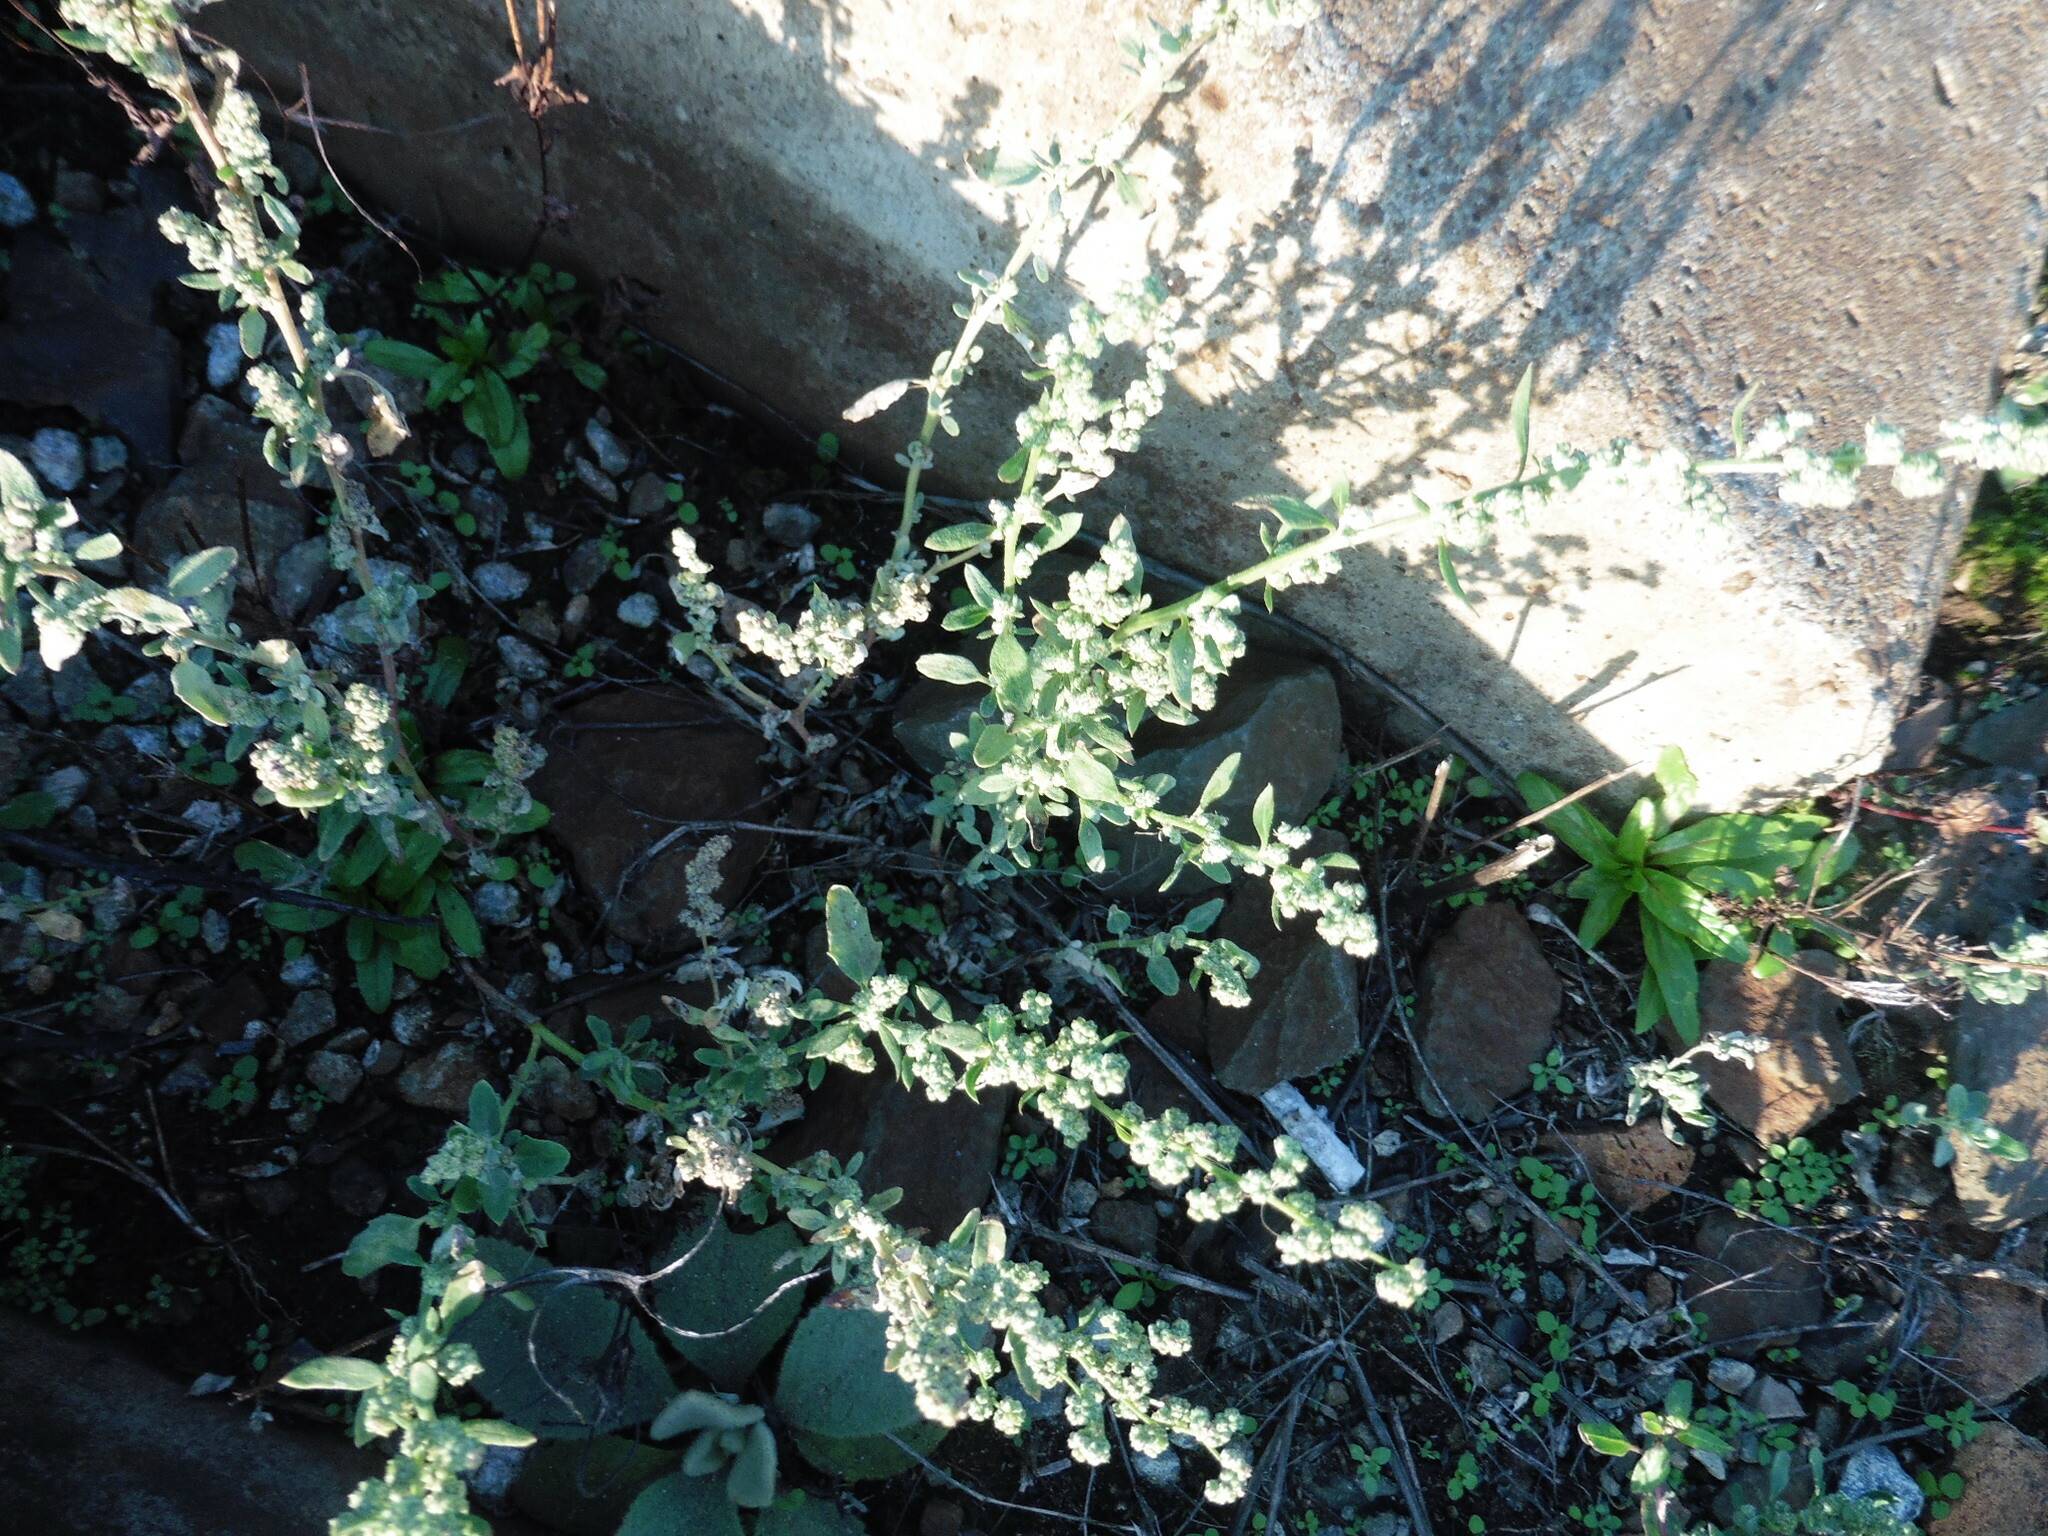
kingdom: Plantae
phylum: Tracheophyta
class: Magnoliopsida
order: Caryophyllales
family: Amaranthaceae
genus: Chenopodium
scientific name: Chenopodium album
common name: Fat-hen
